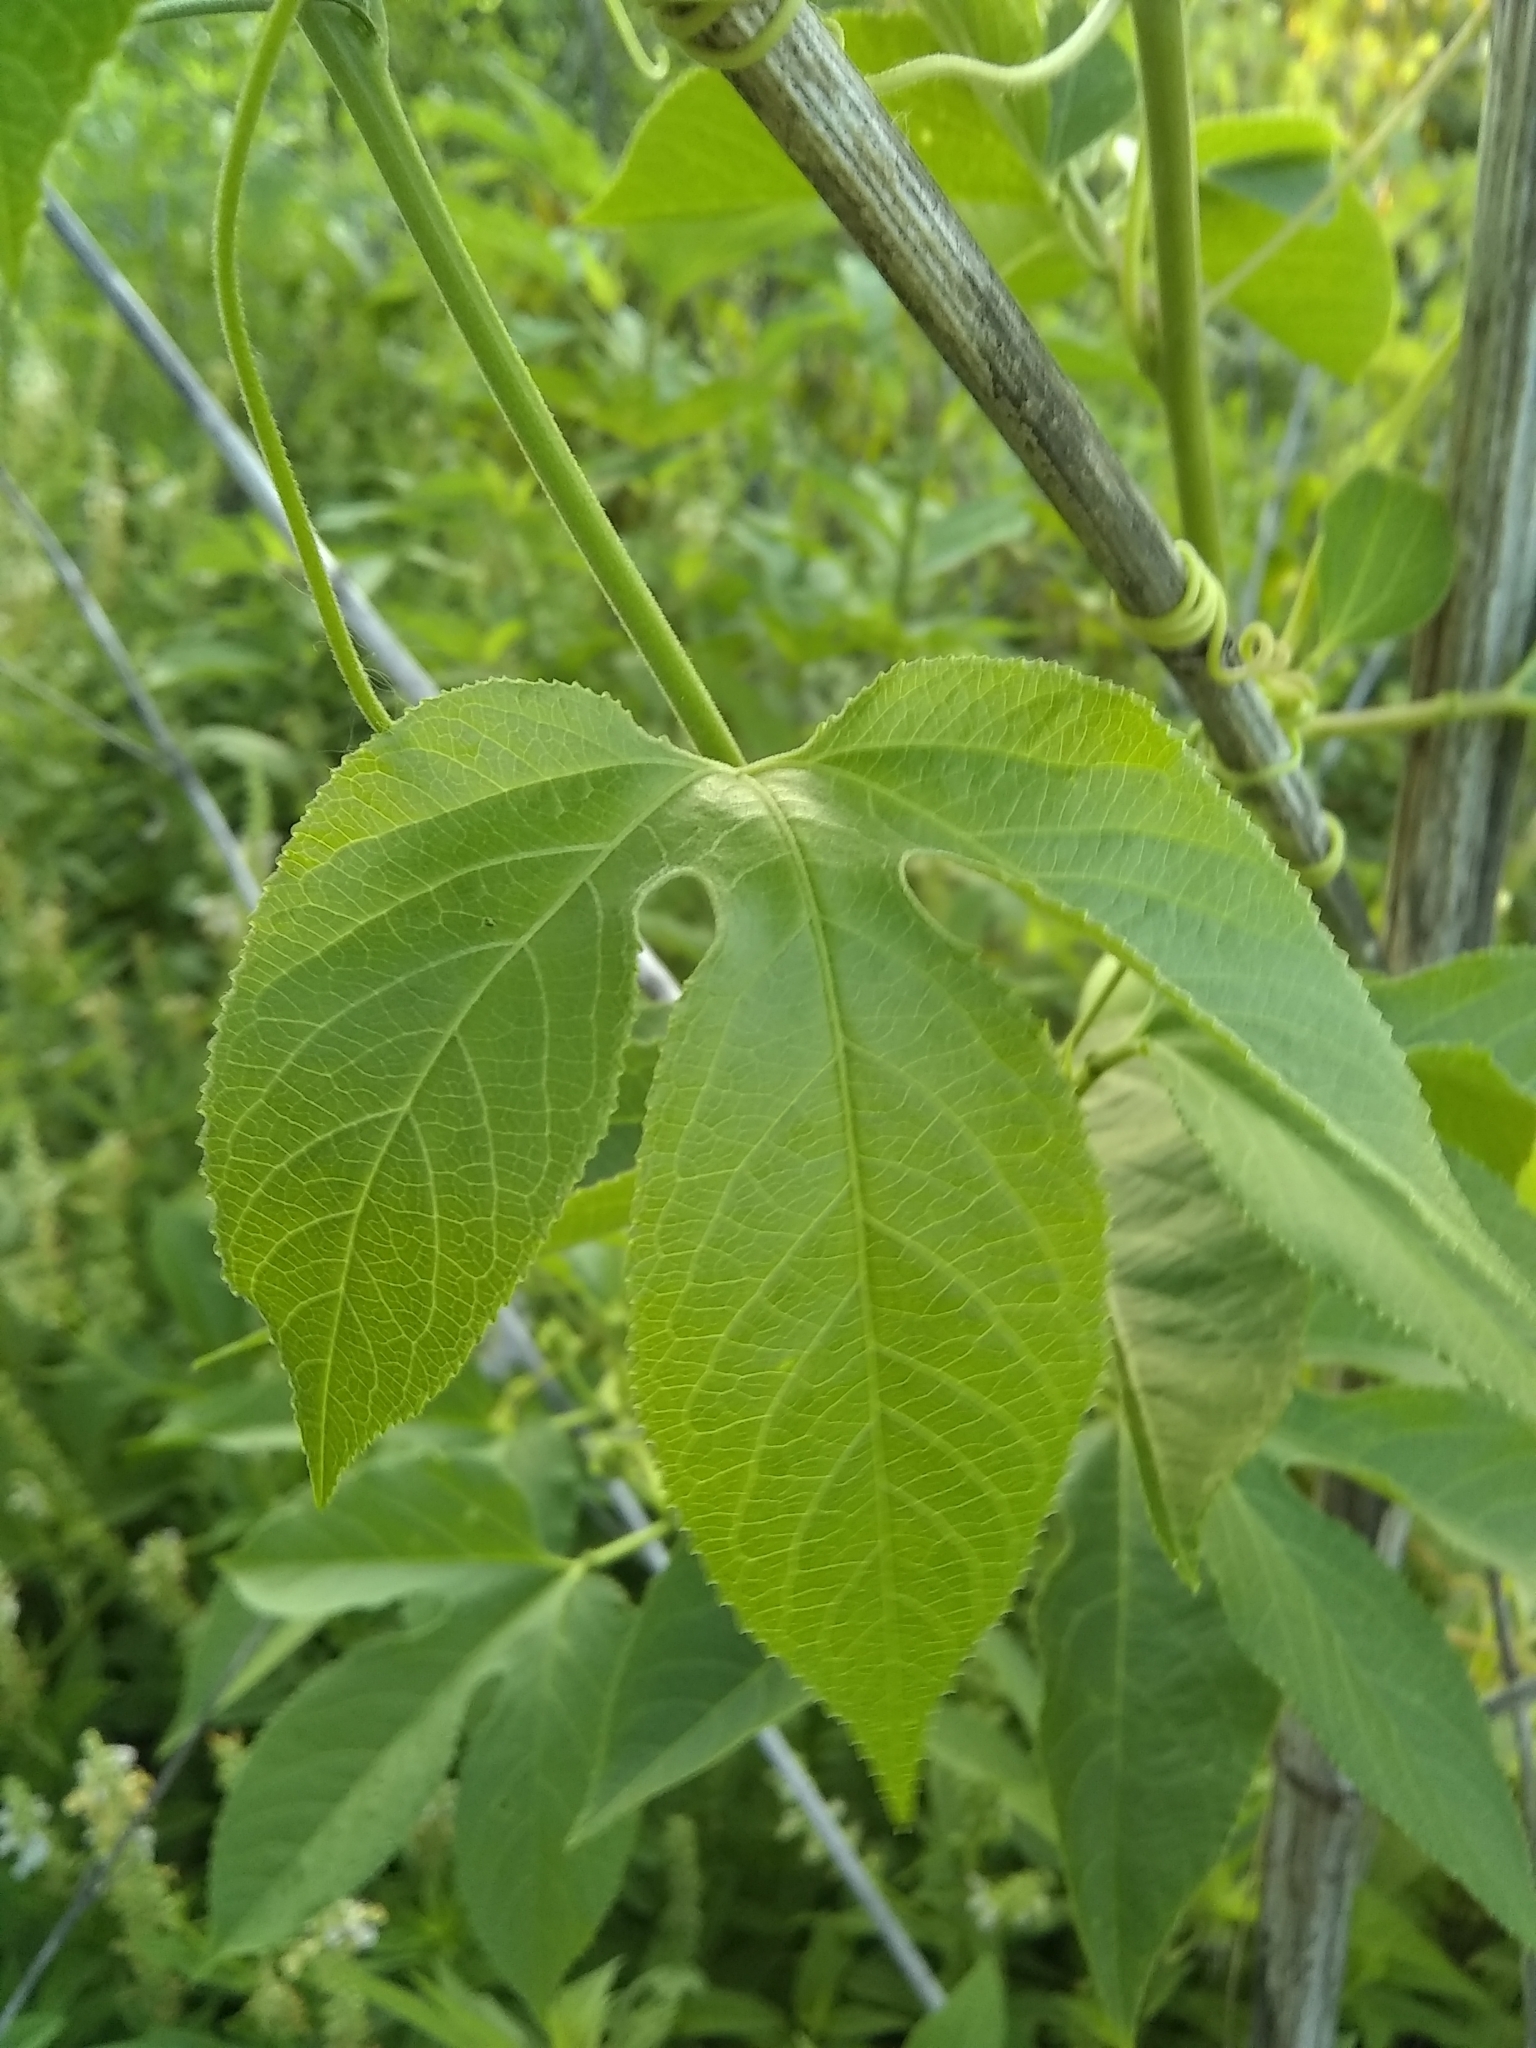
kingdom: Plantae
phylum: Tracheophyta
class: Magnoliopsida
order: Malpighiales
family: Passifloraceae
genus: Passiflora
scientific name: Passiflora incarnata
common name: Apricot-vine
